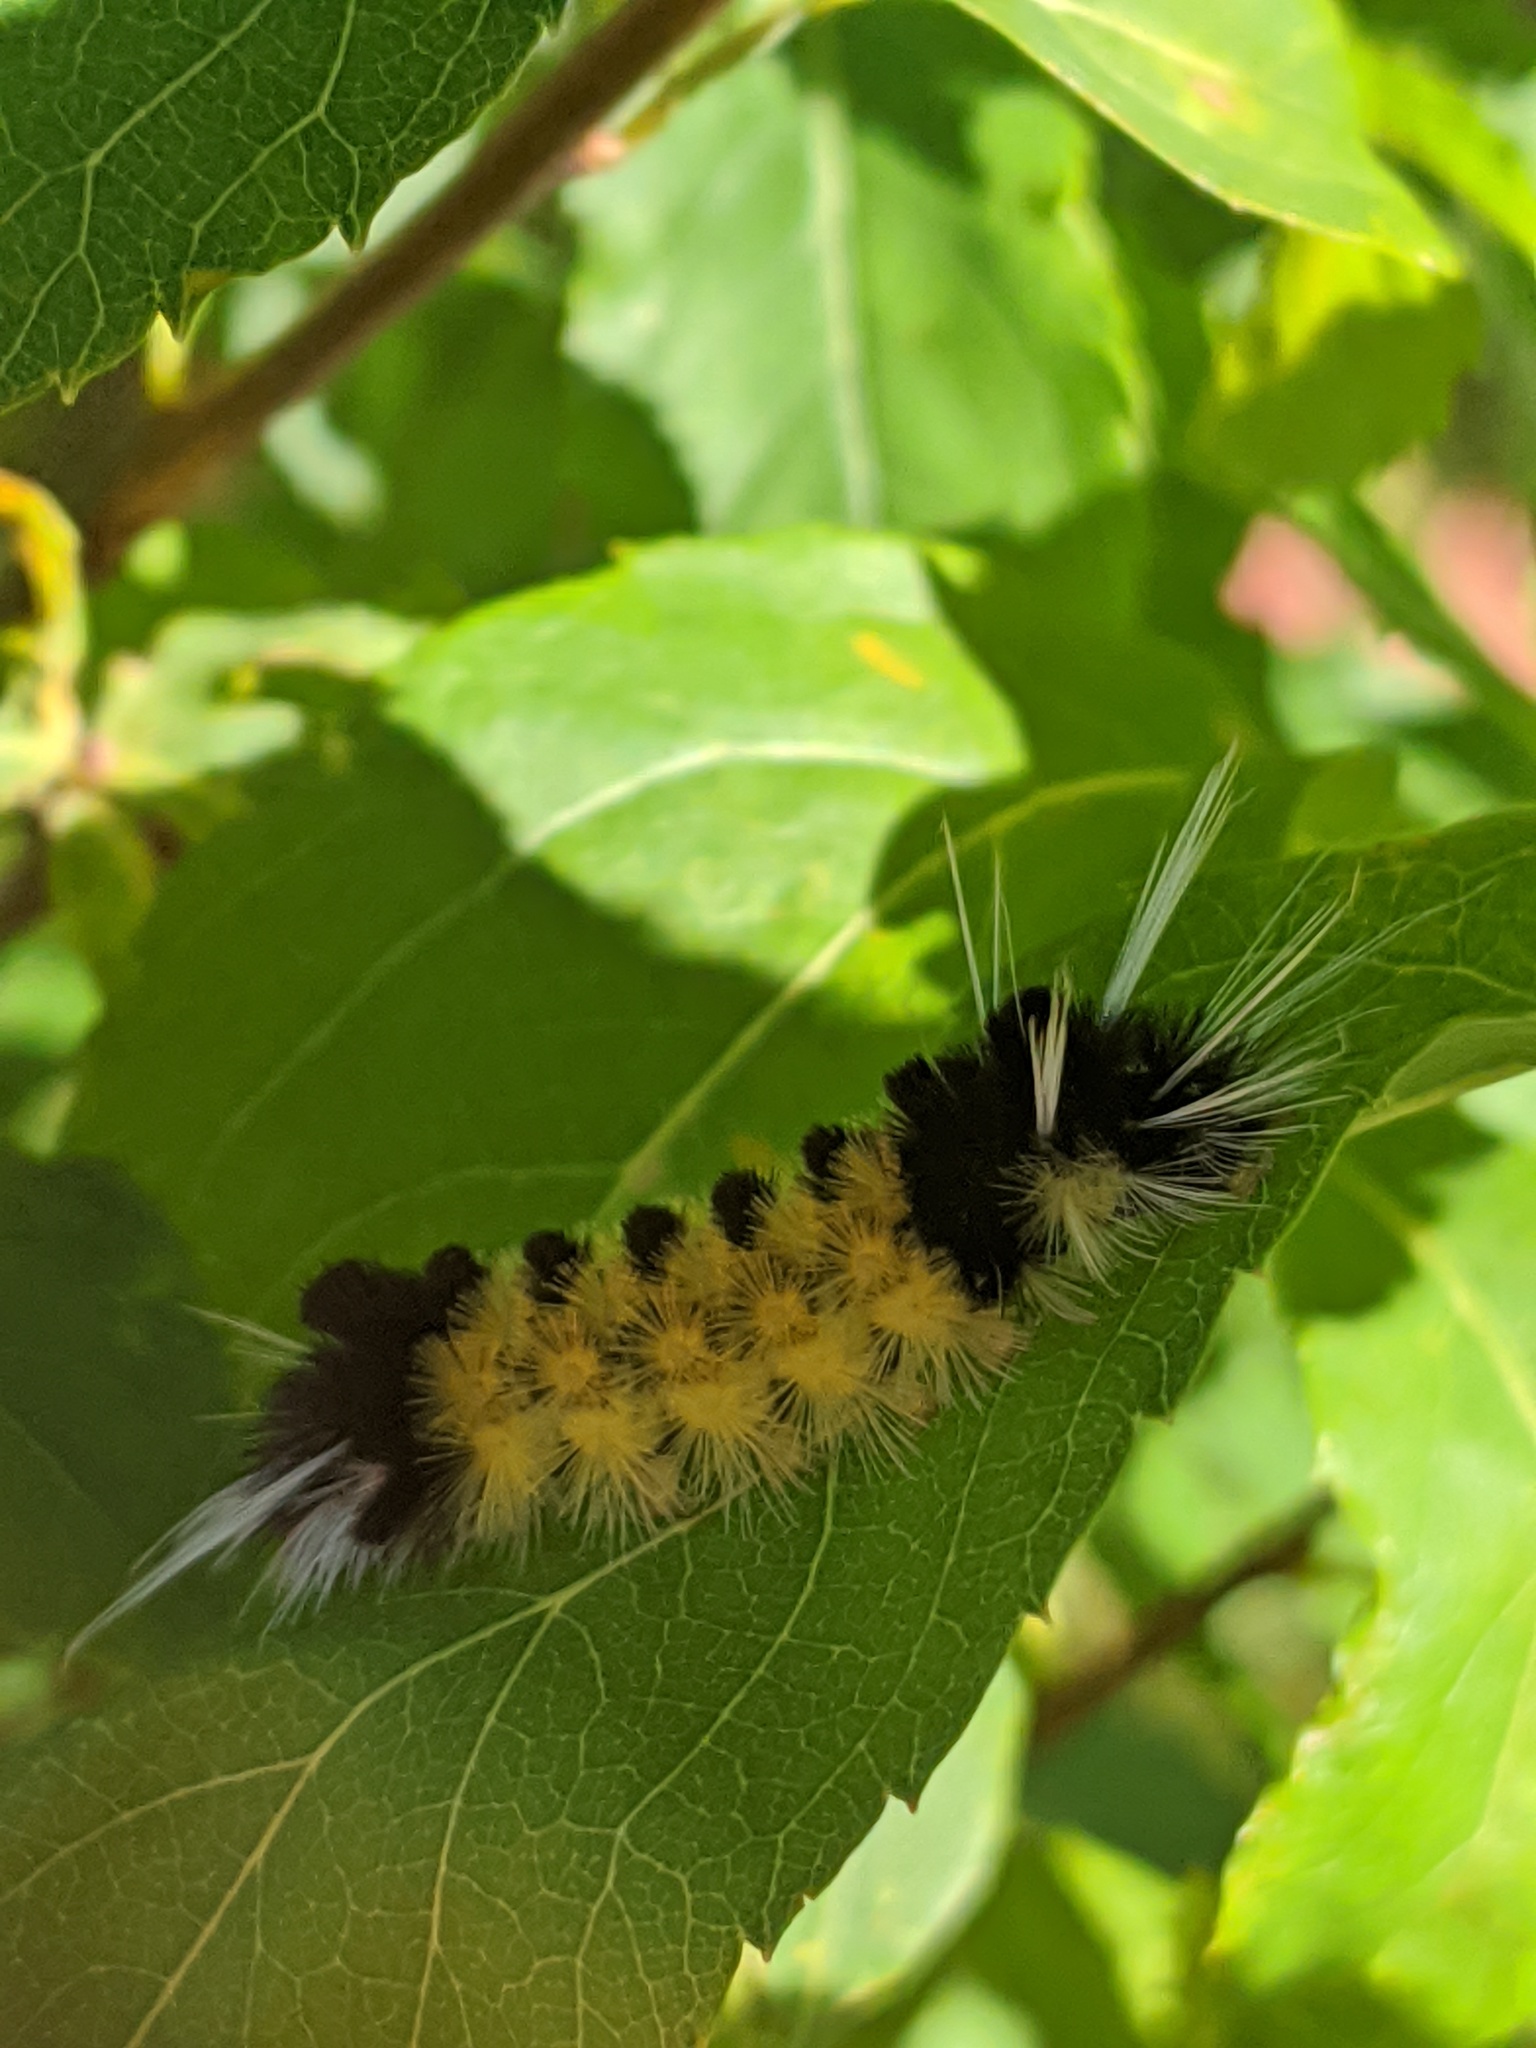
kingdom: Animalia
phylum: Arthropoda
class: Insecta
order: Lepidoptera
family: Erebidae
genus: Lophocampa
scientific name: Lophocampa maculata
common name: Spotted tussock moth
